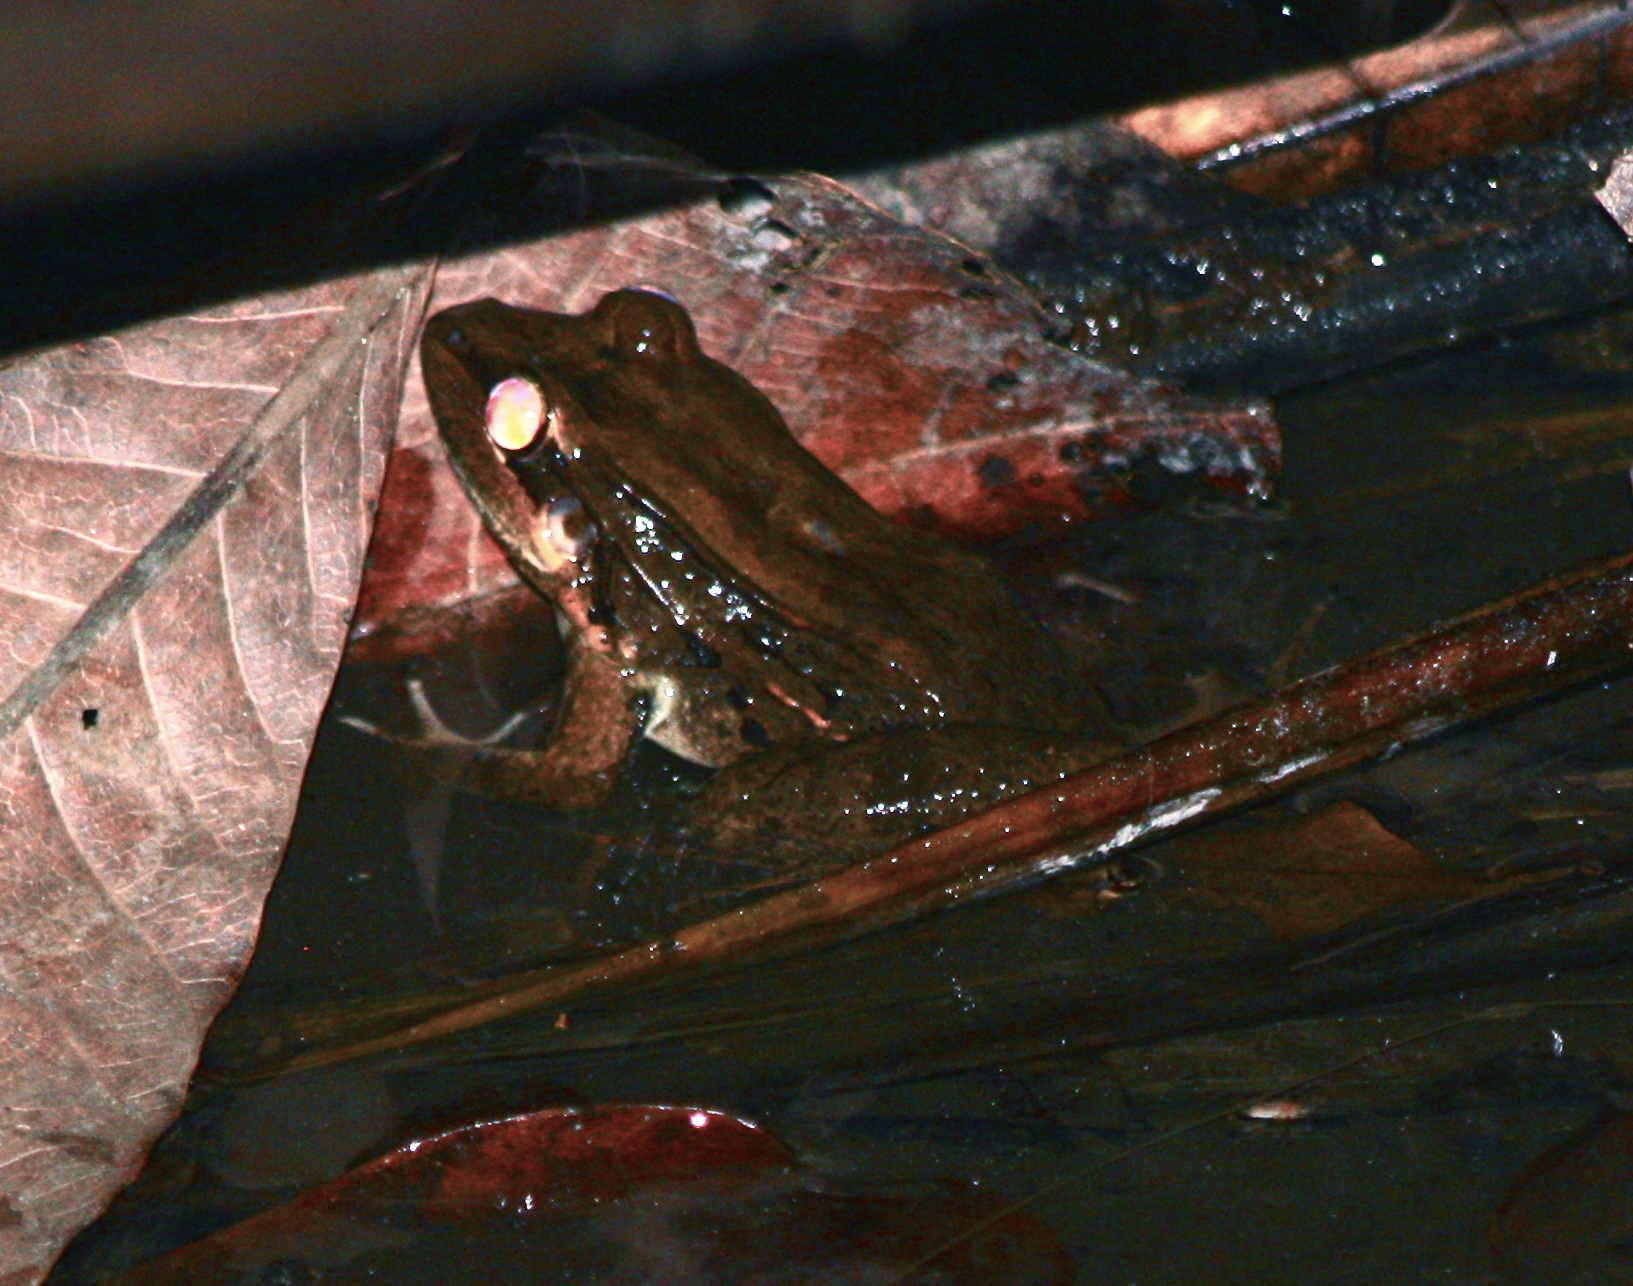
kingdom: Animalia
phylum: Chordata
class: Amphibia
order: Anura
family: Leptodactylidae
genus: Leptodactylus
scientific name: Leptodactylus insularum
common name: San miguel island frog
